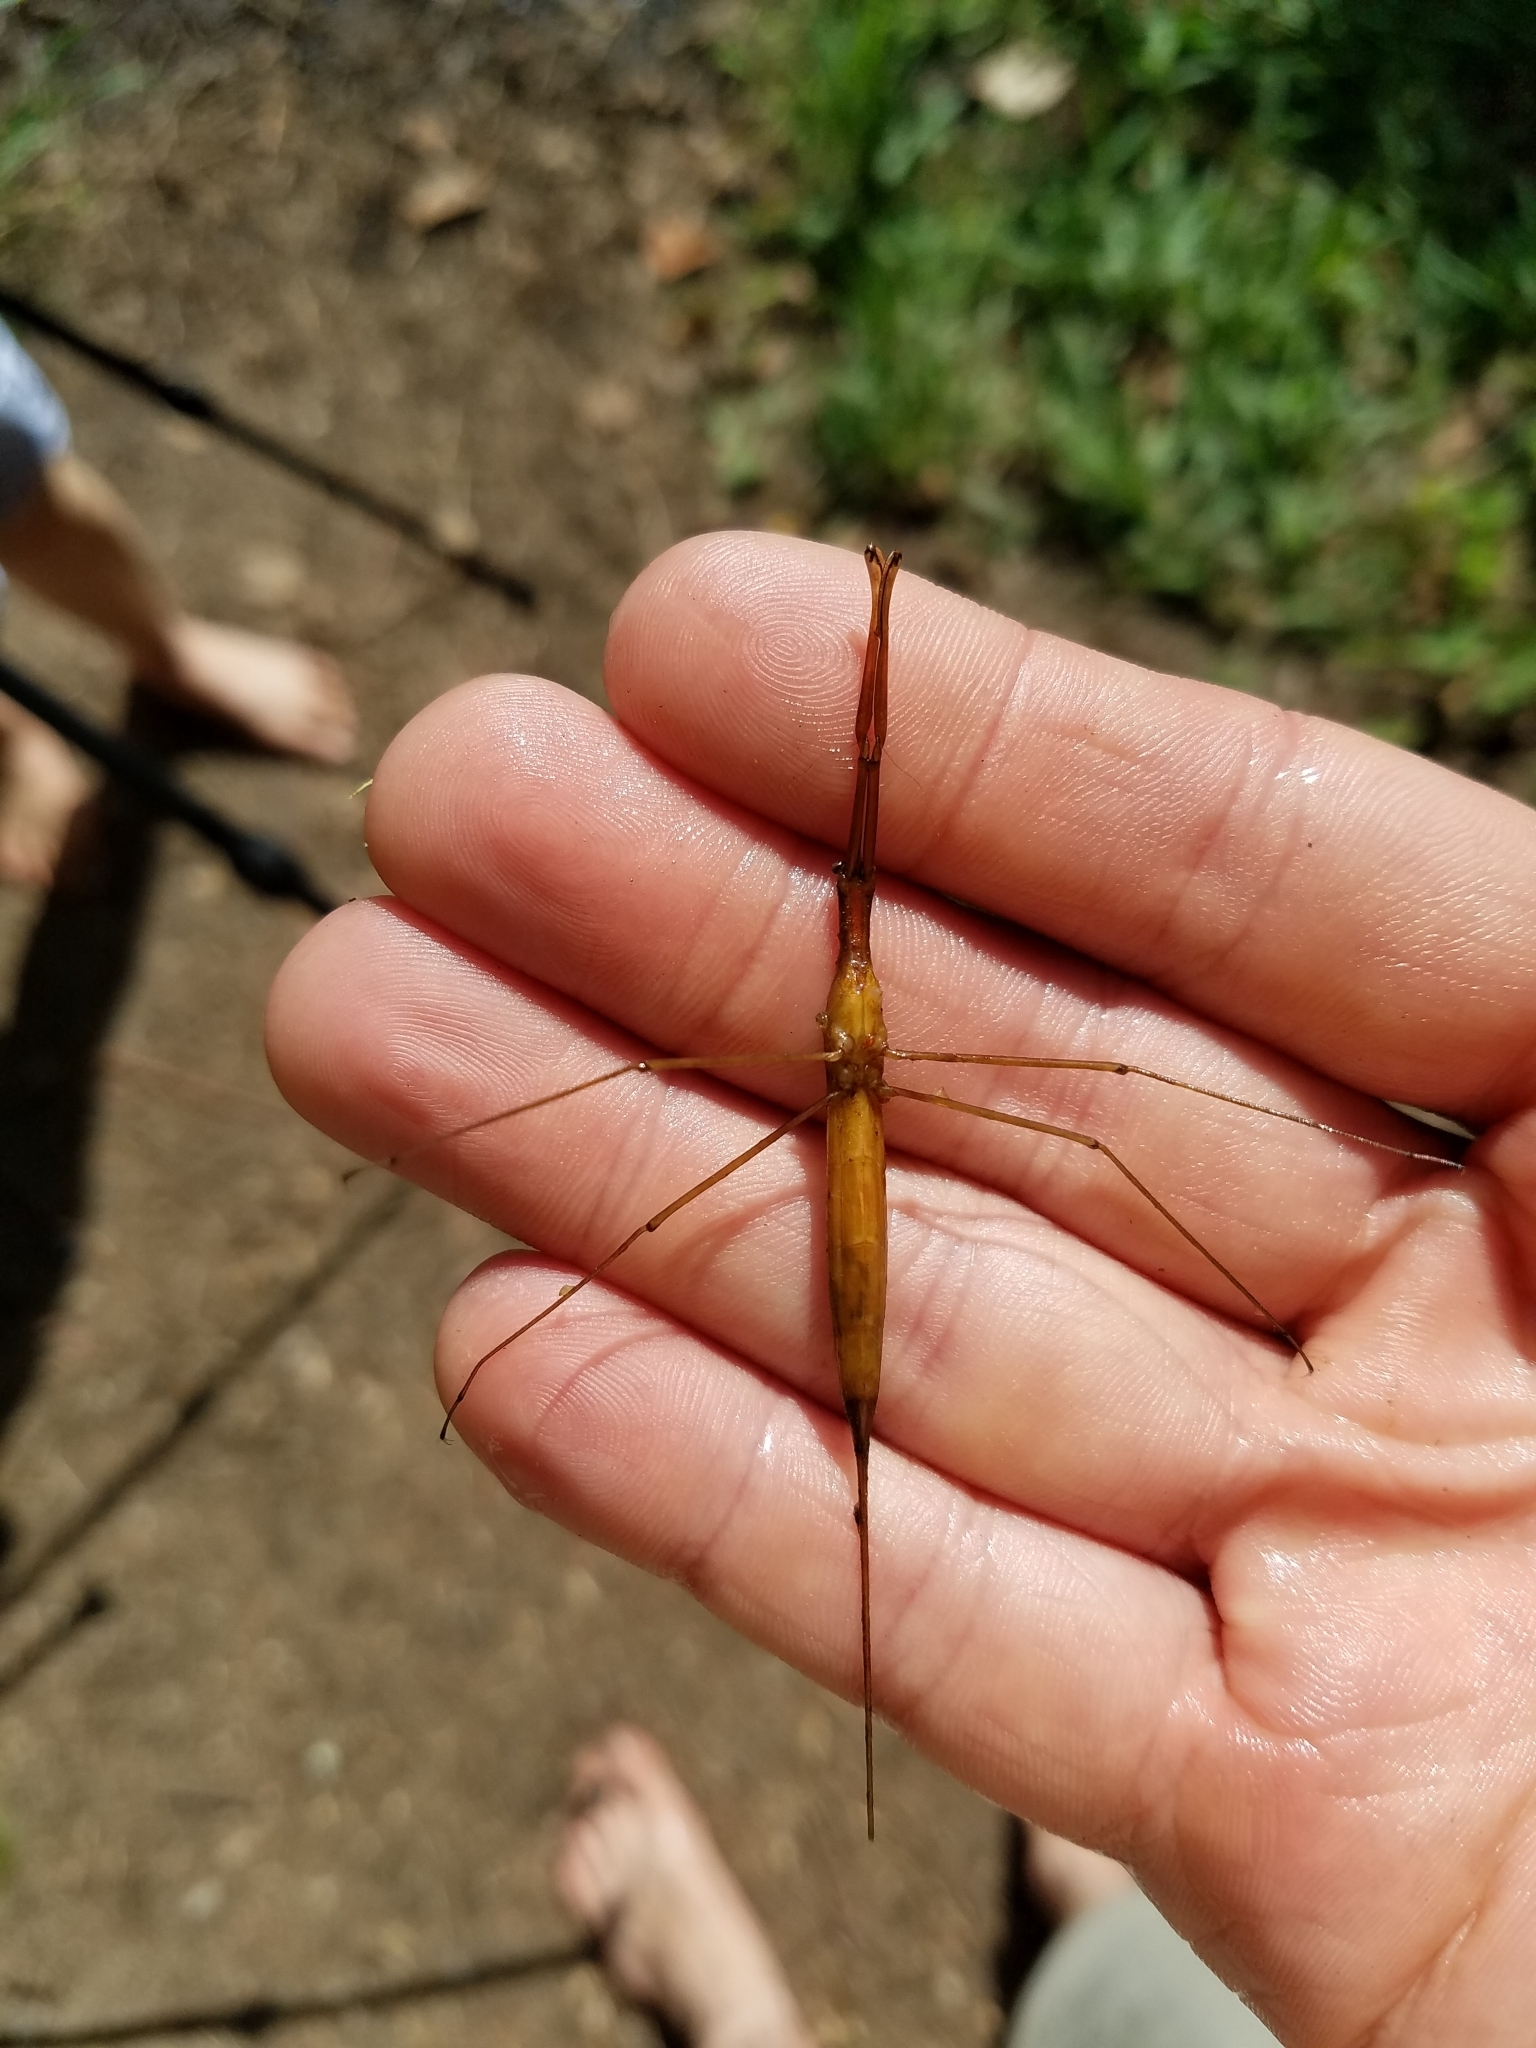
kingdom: Animalia
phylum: Arthropoda
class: Insecta
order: Hemiptera
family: Nepidae
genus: Ranatra
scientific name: Ranatra fusca
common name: Brown waterscorpion
